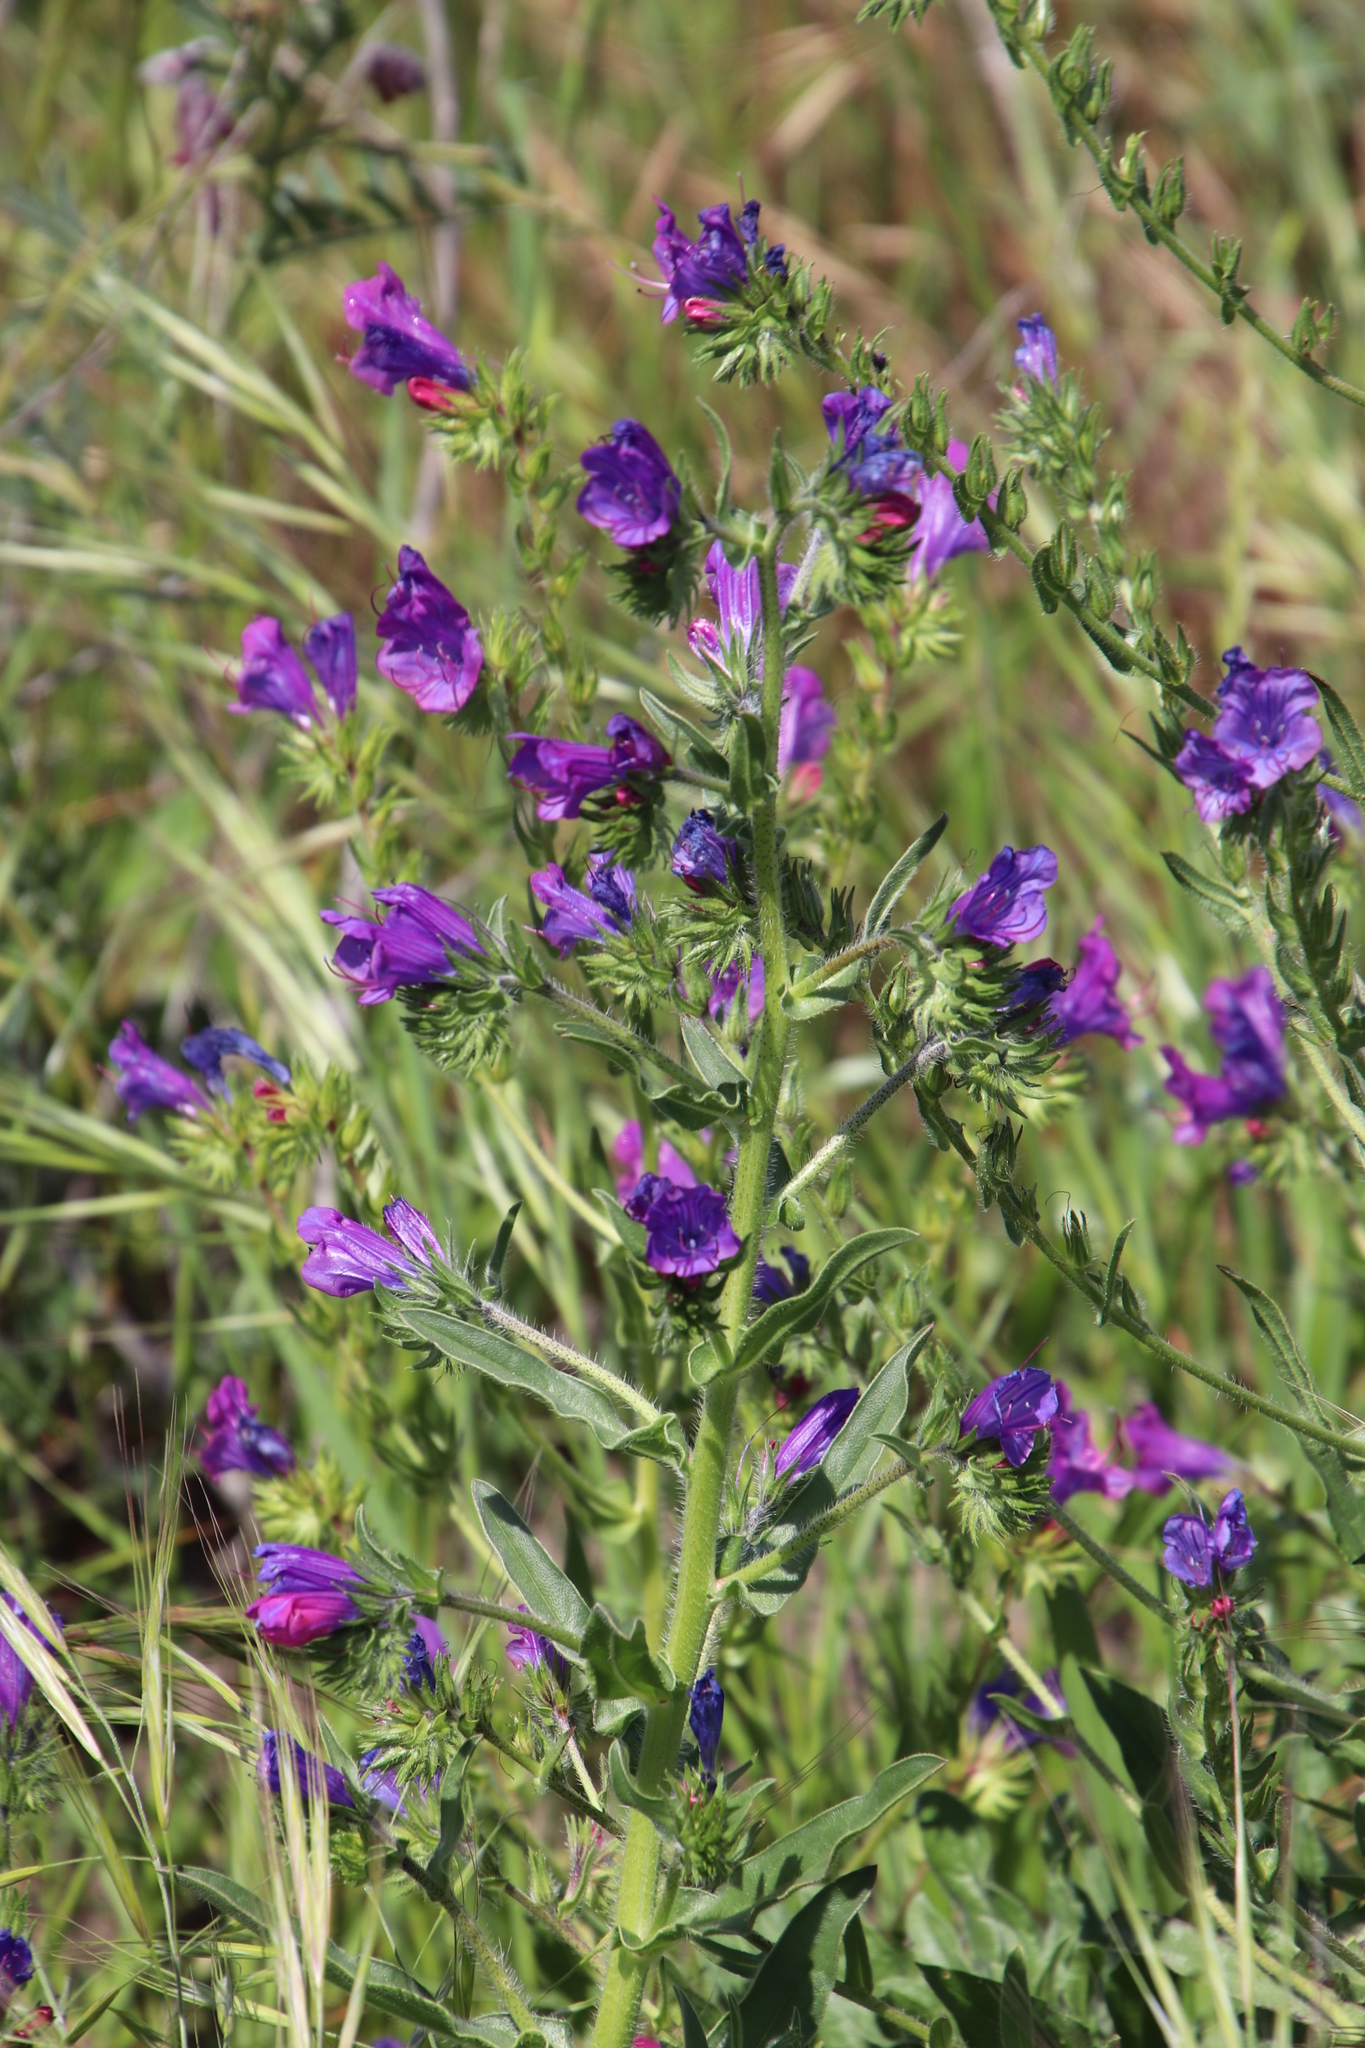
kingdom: Plantae
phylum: Tracheophyta
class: Magnoliopsida
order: Boraginales
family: Boraginaceae
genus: Echium
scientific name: Echium plantagineum
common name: Purple viper's-bugloss
